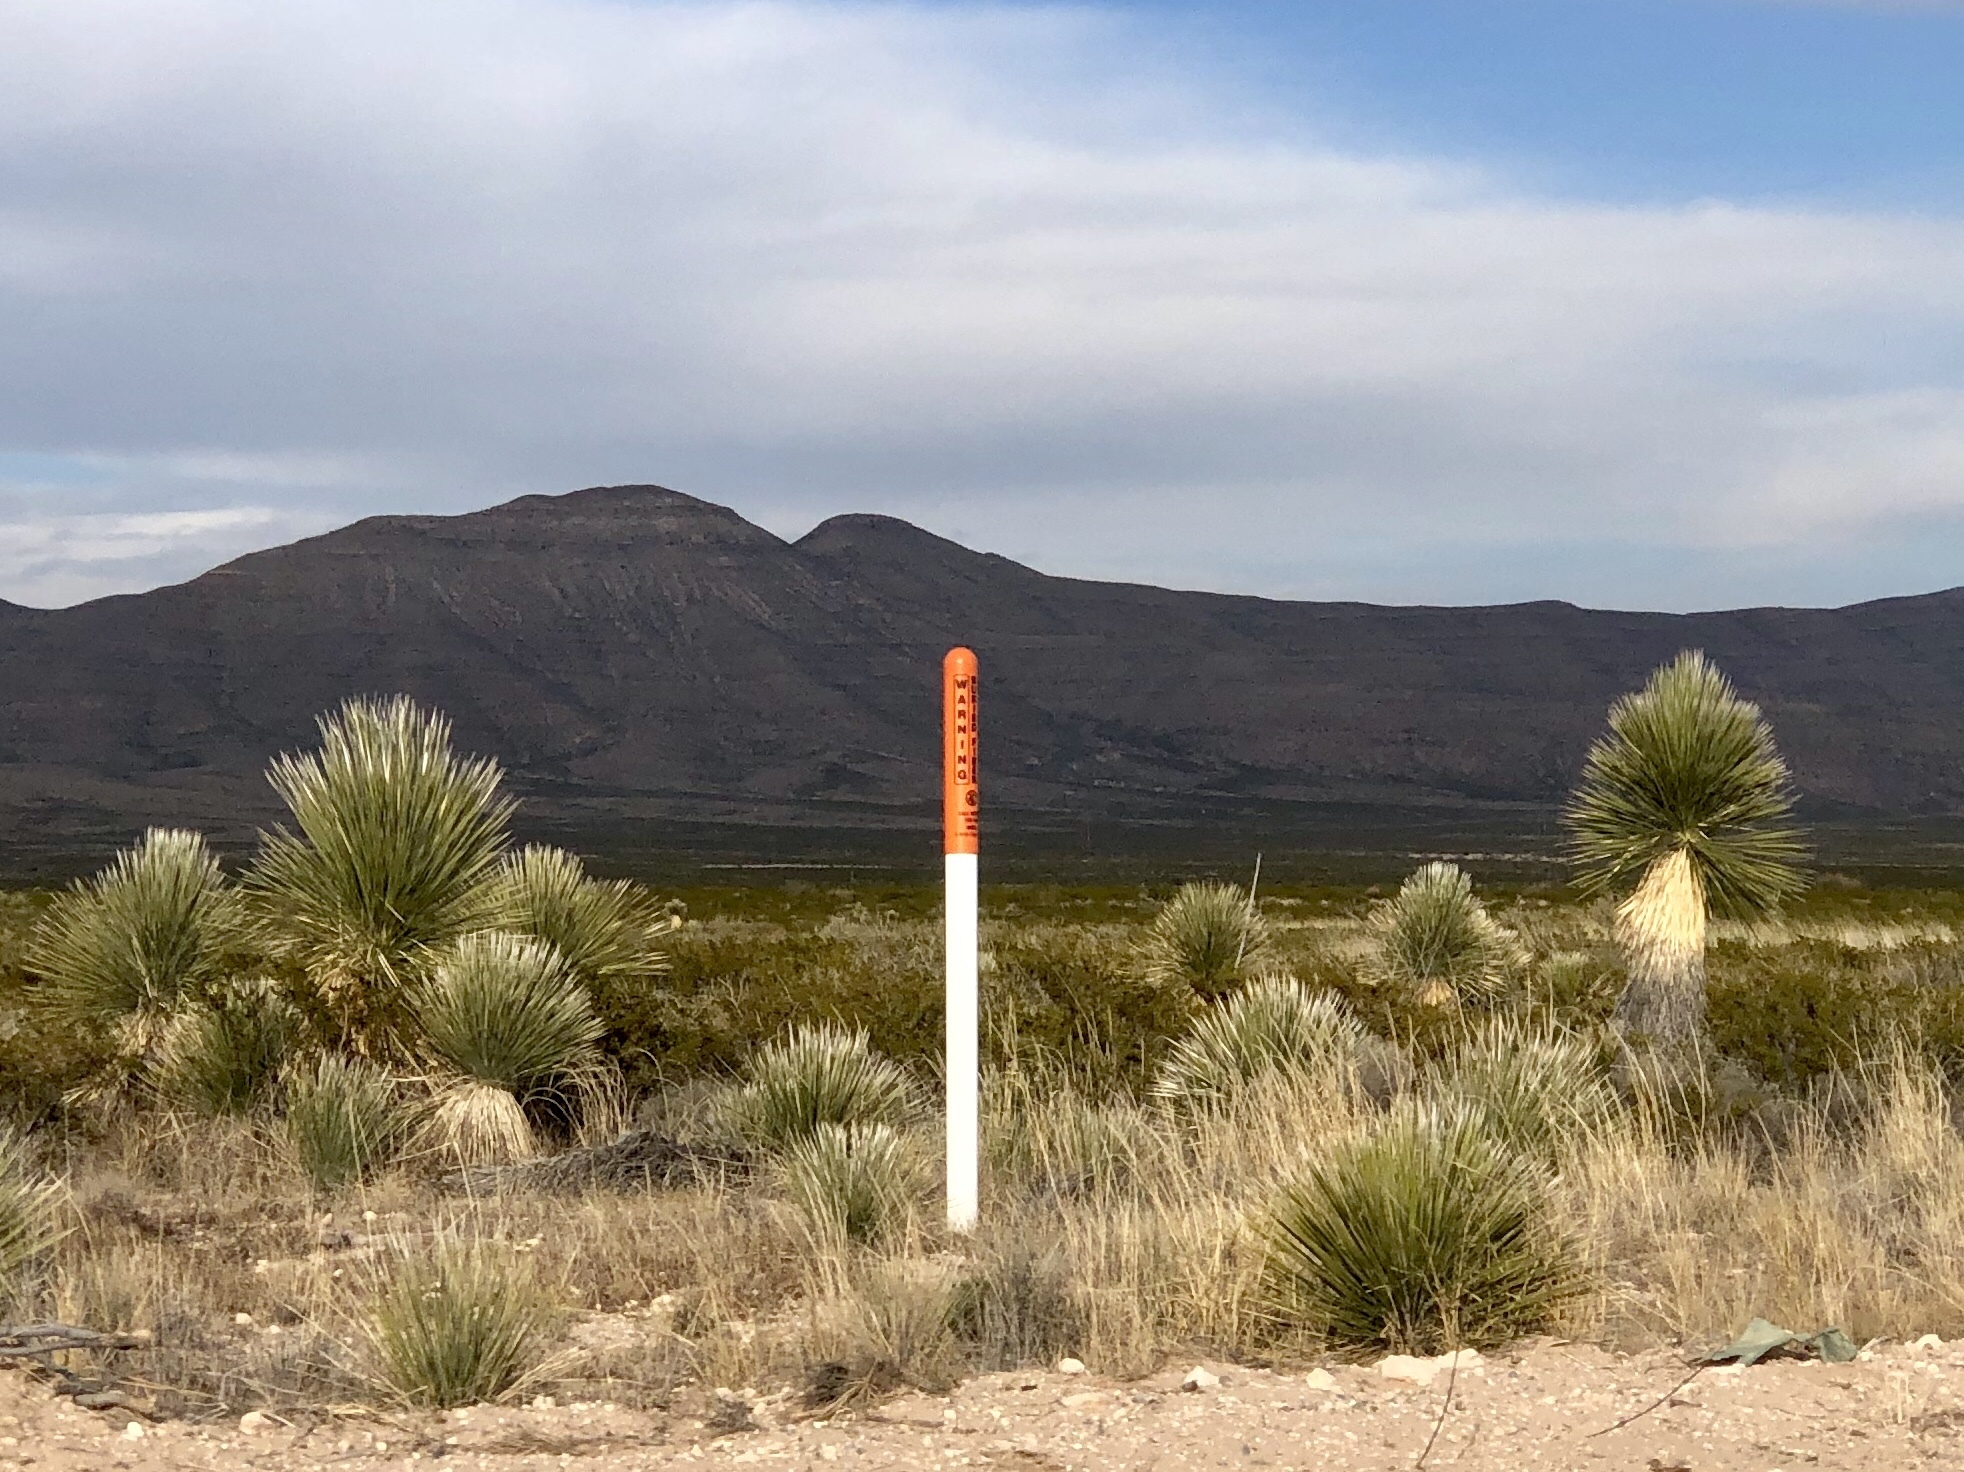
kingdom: Plantae
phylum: Tracheophyta
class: Liliopsida
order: Asparagales
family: Asparagaceae
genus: Yucca
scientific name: Yucca elata
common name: Palmella
